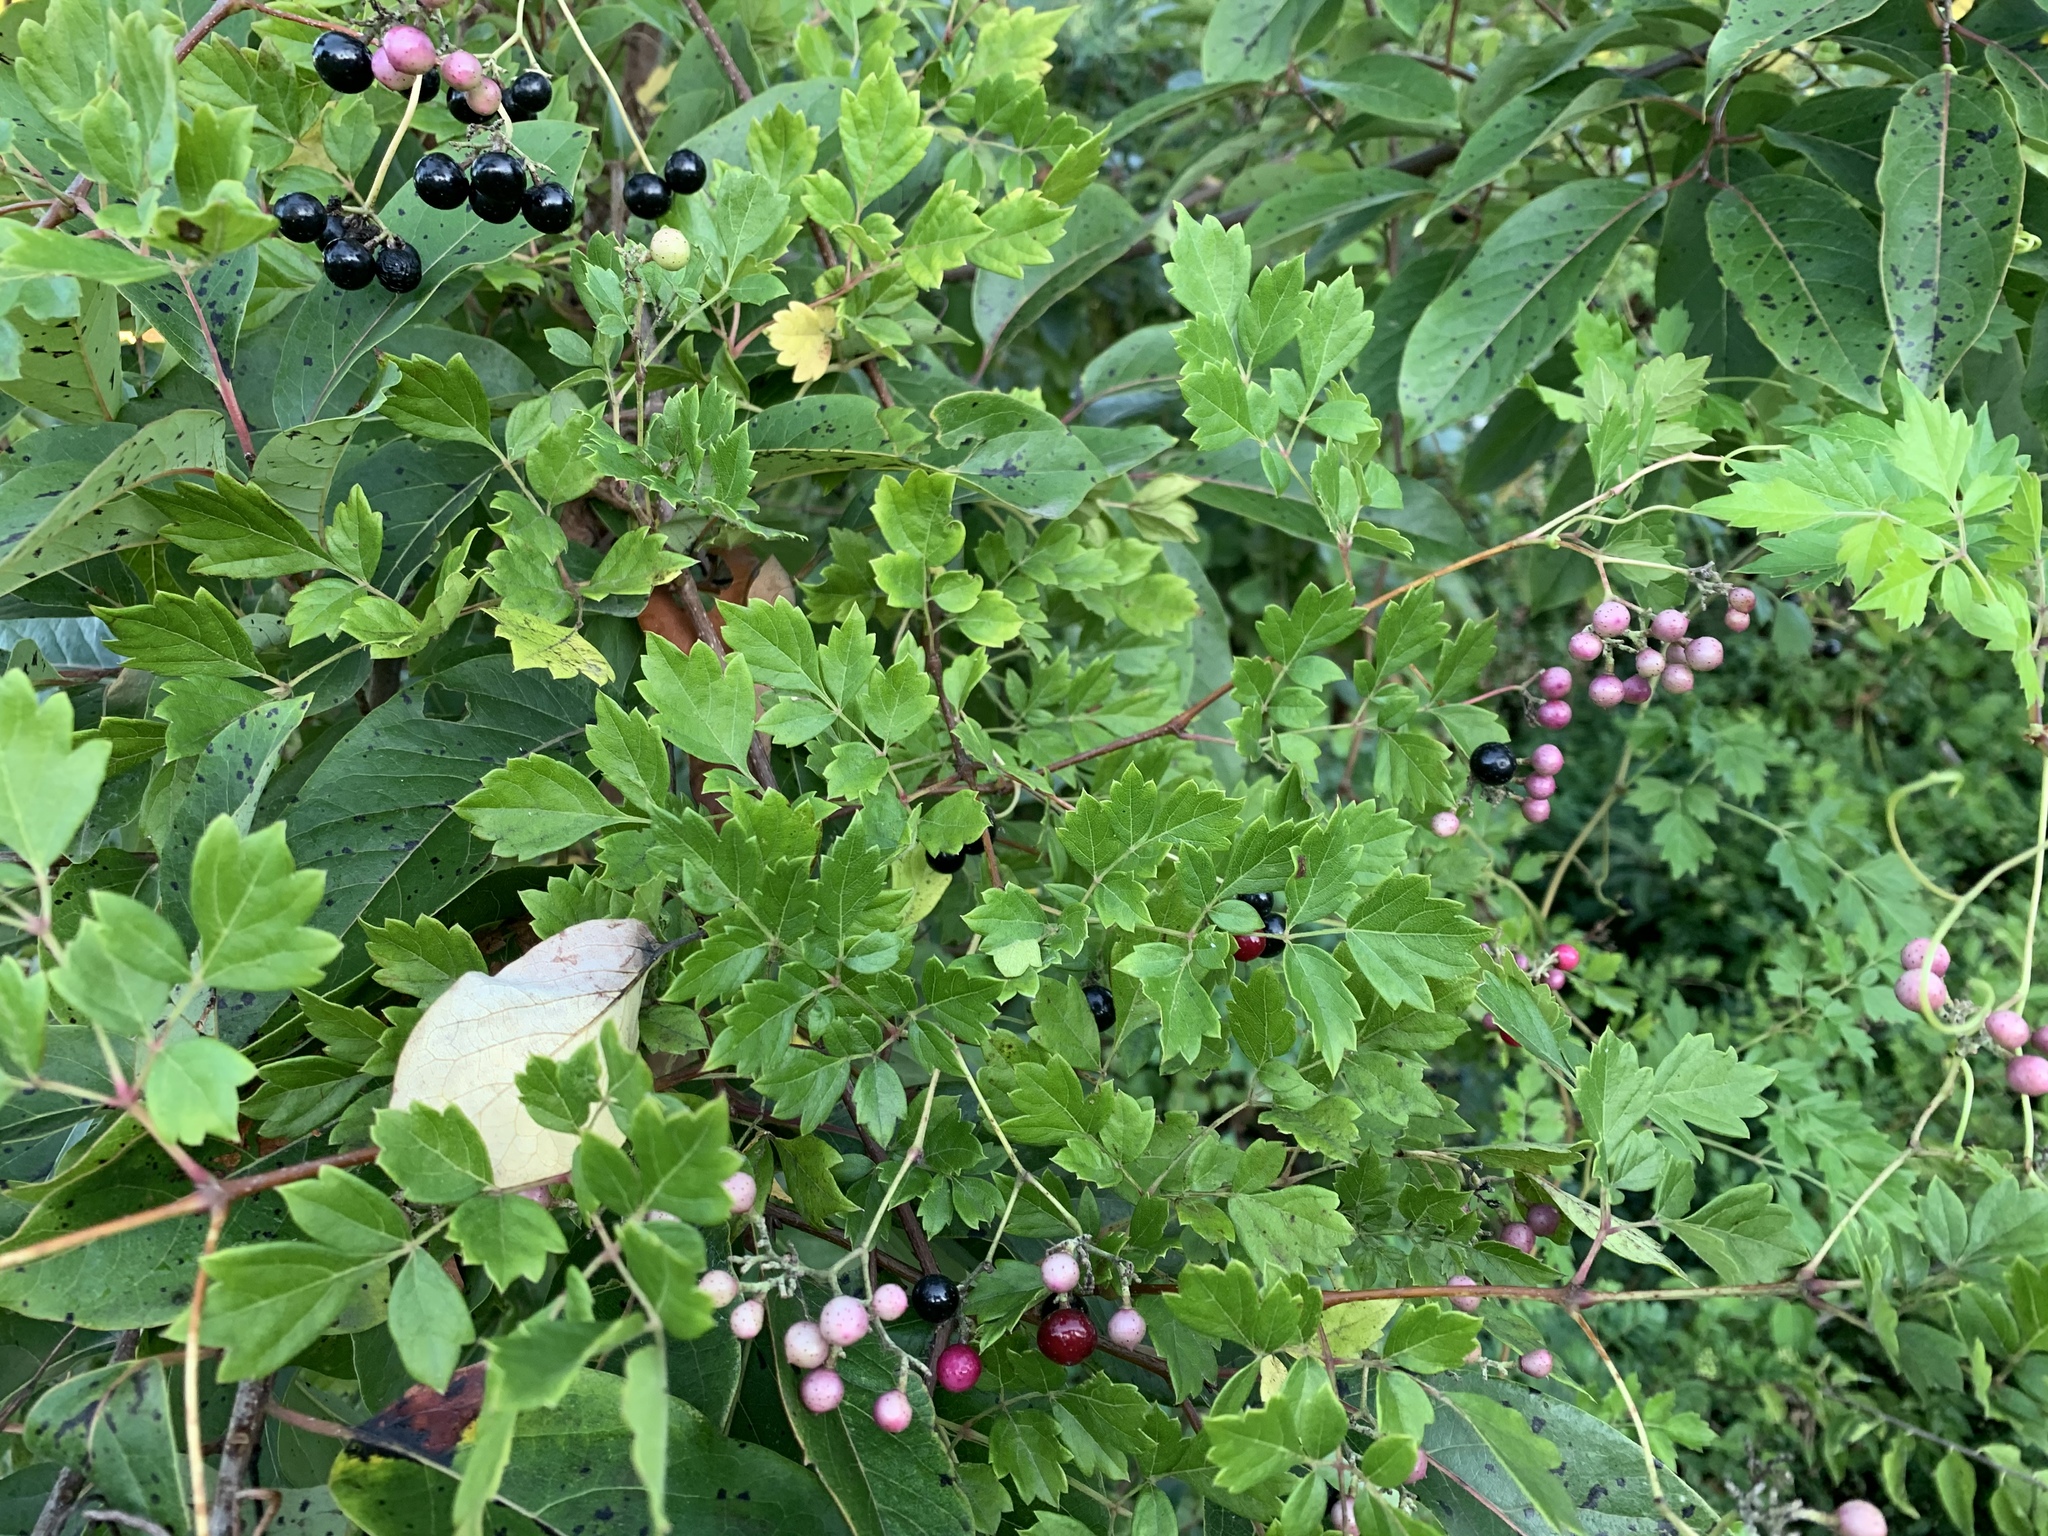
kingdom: Plantae
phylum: Tracheophyta
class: Magnoliopsida
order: Vitales
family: Vitaceae
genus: Nekemias
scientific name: Nekemias arborea
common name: Peppervine
